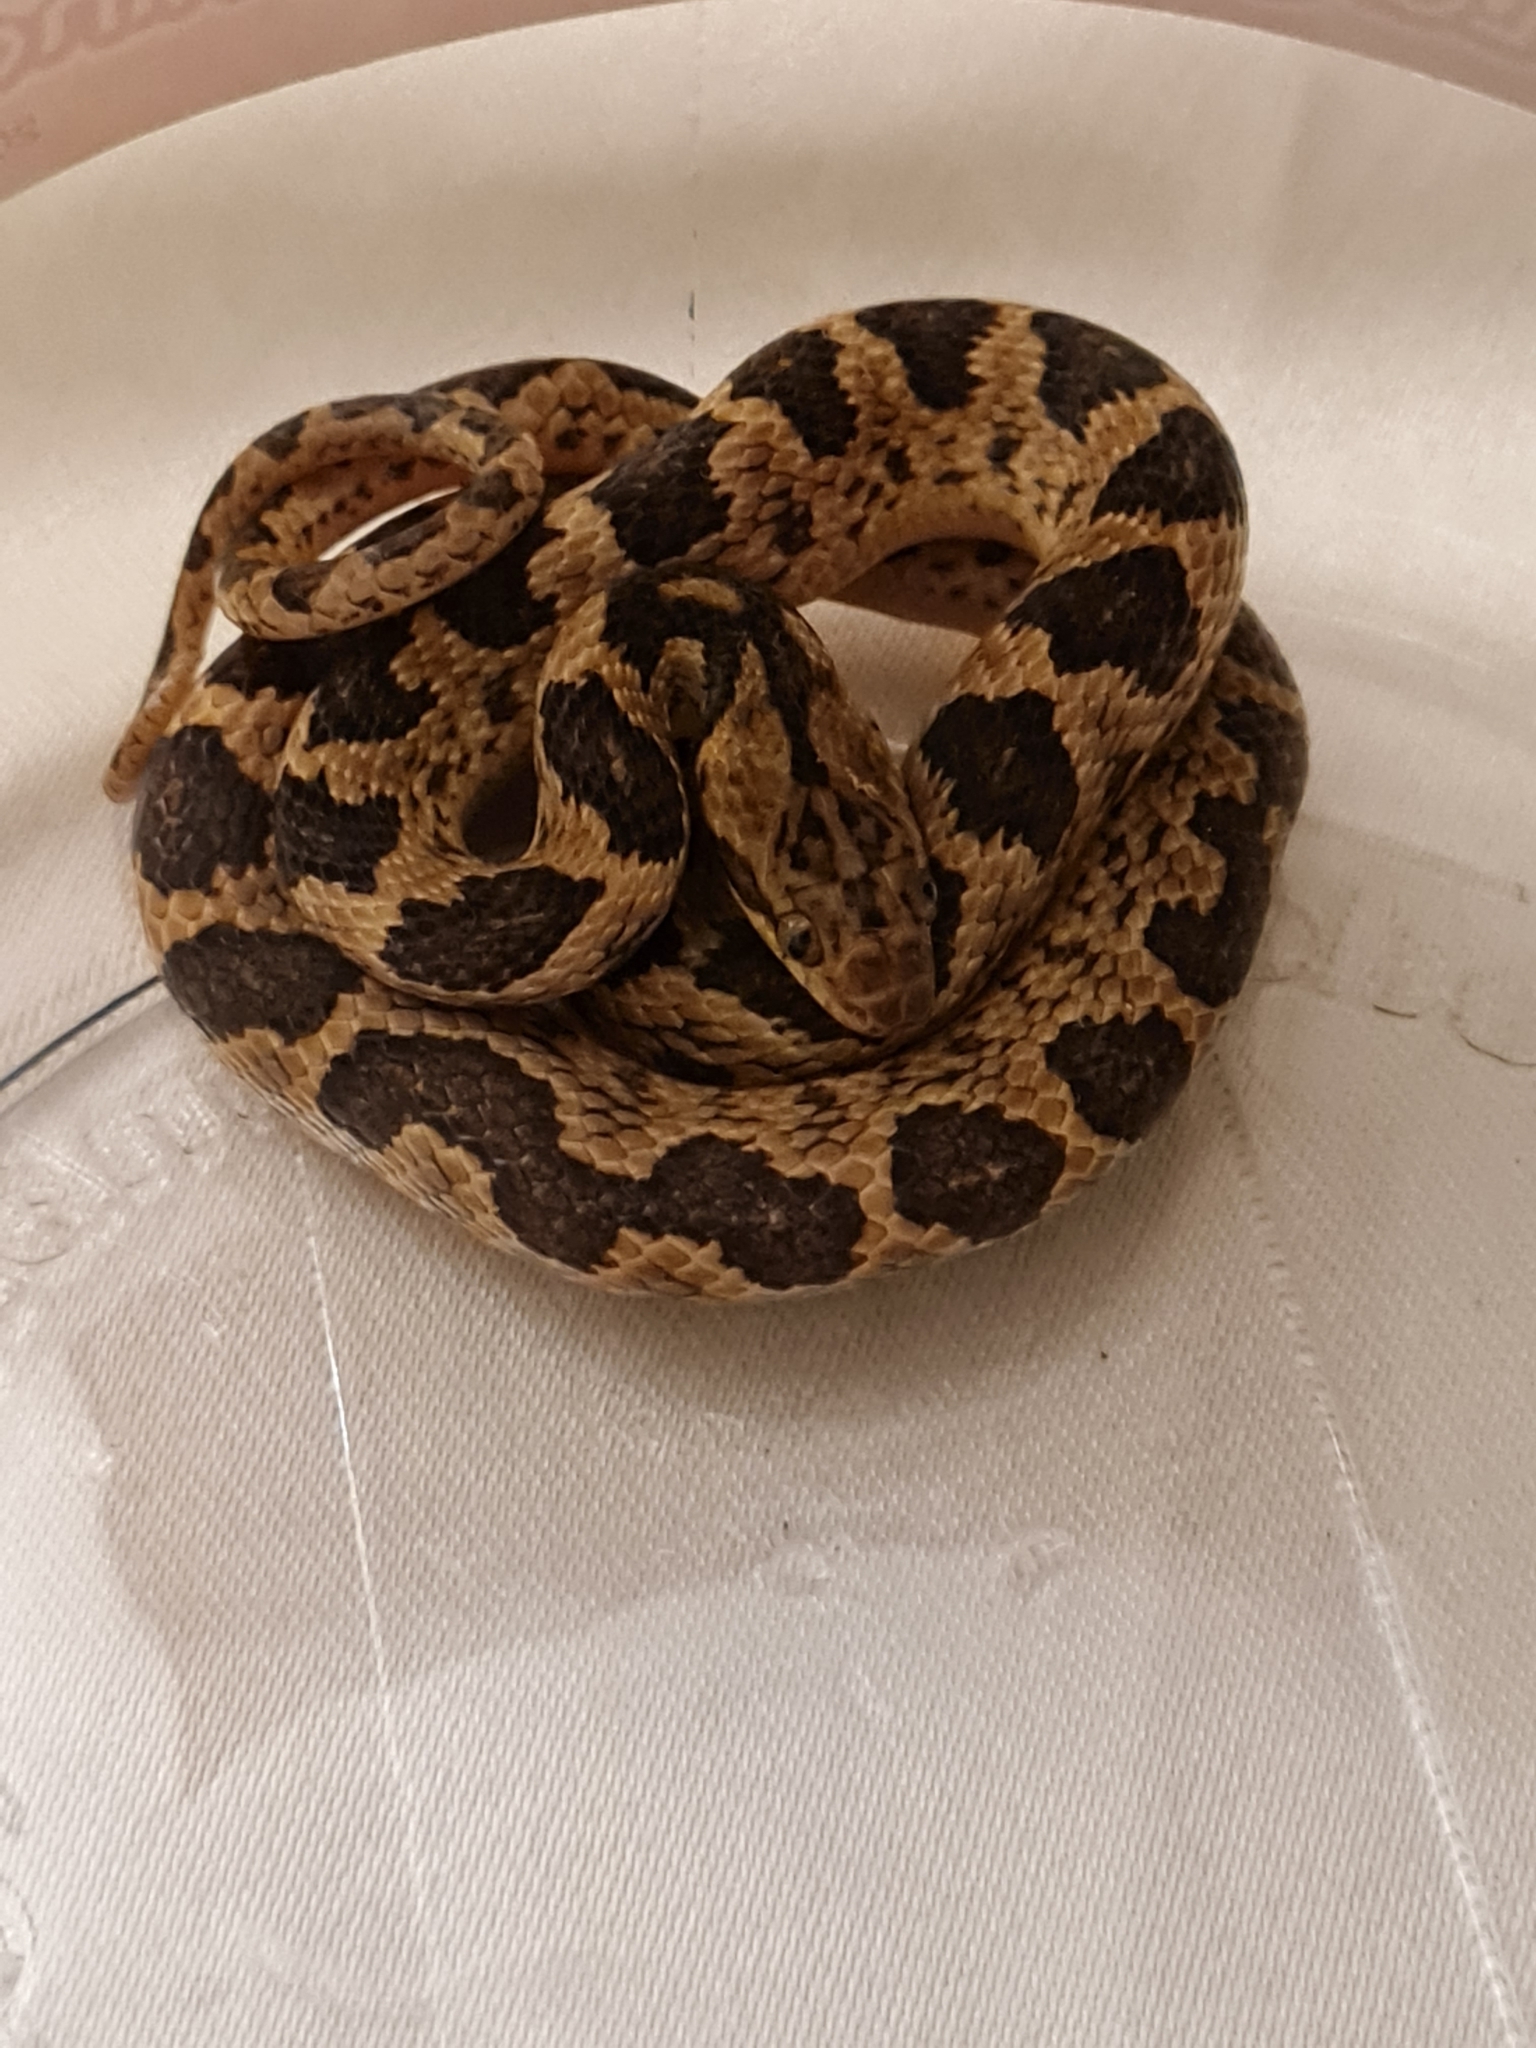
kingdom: Animalia
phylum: Chordata
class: Squamata
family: Colubridae
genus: Leptodeira
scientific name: Leptodeira rhombifera
